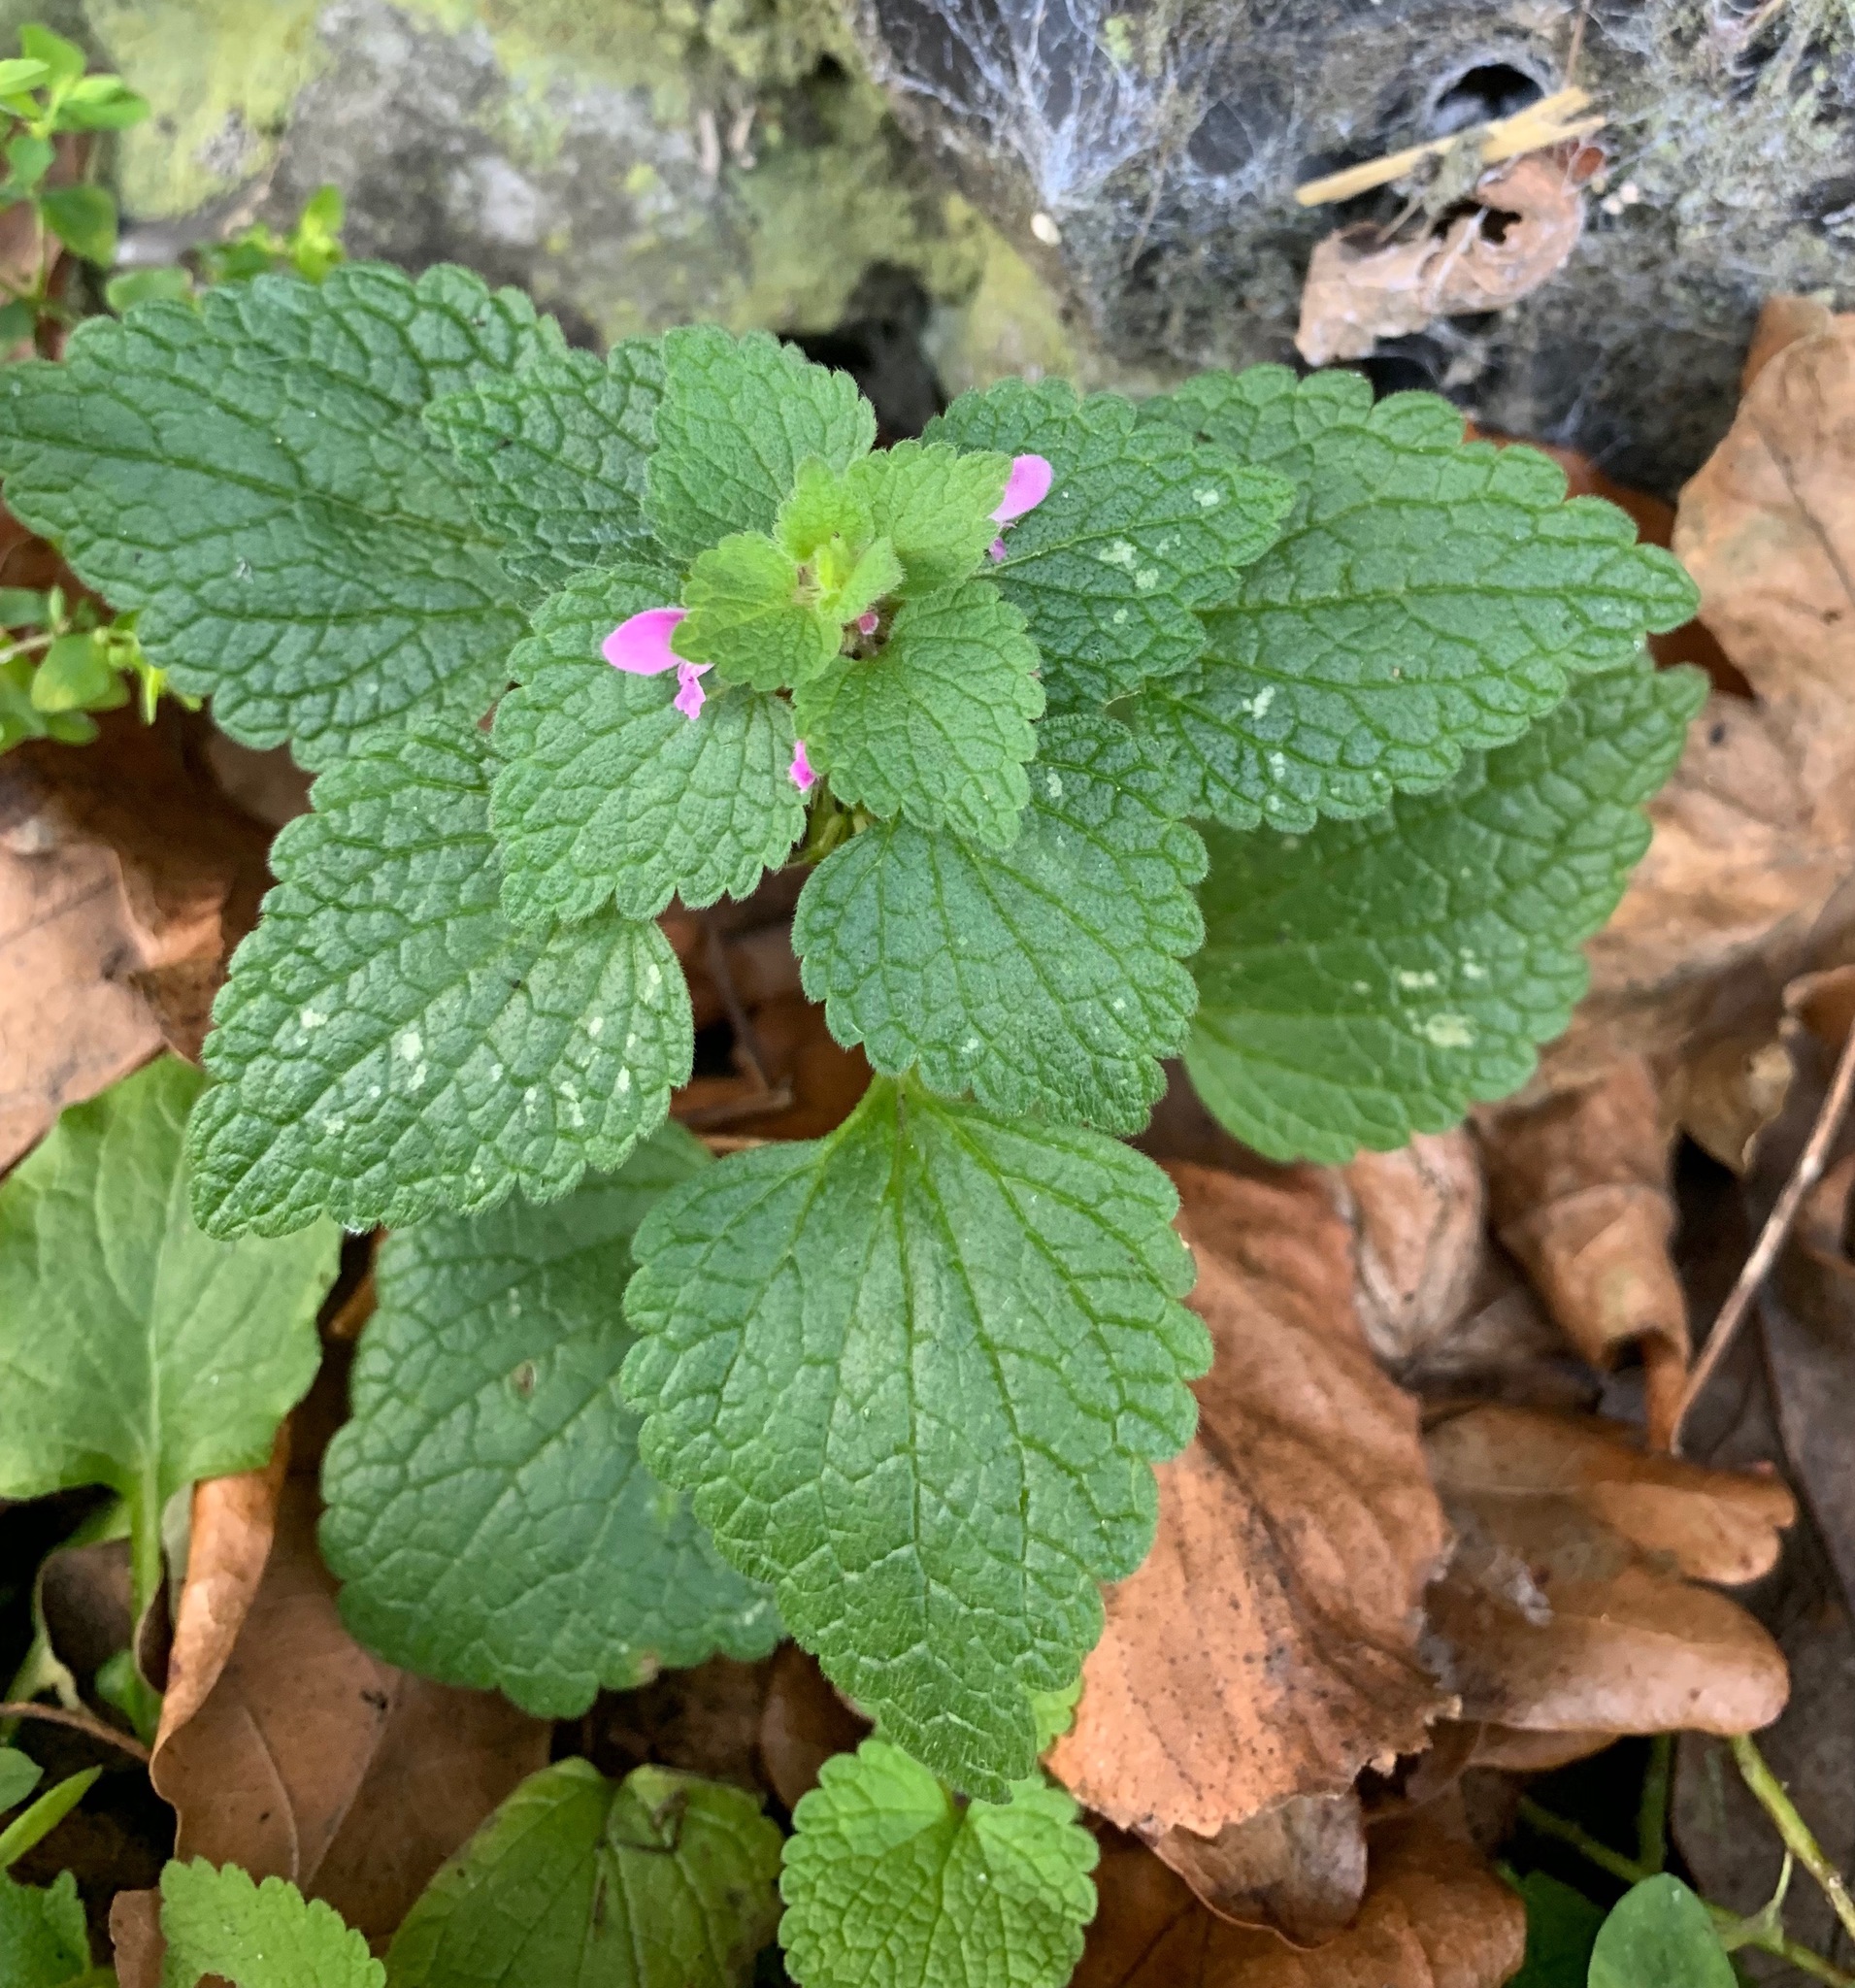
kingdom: Plantae
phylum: Tracheophyta
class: Magnoliopsida
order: Lamiales
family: Lamiaceae
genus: Lamium
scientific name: Lamium purpureum
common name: Red dead-nettle
